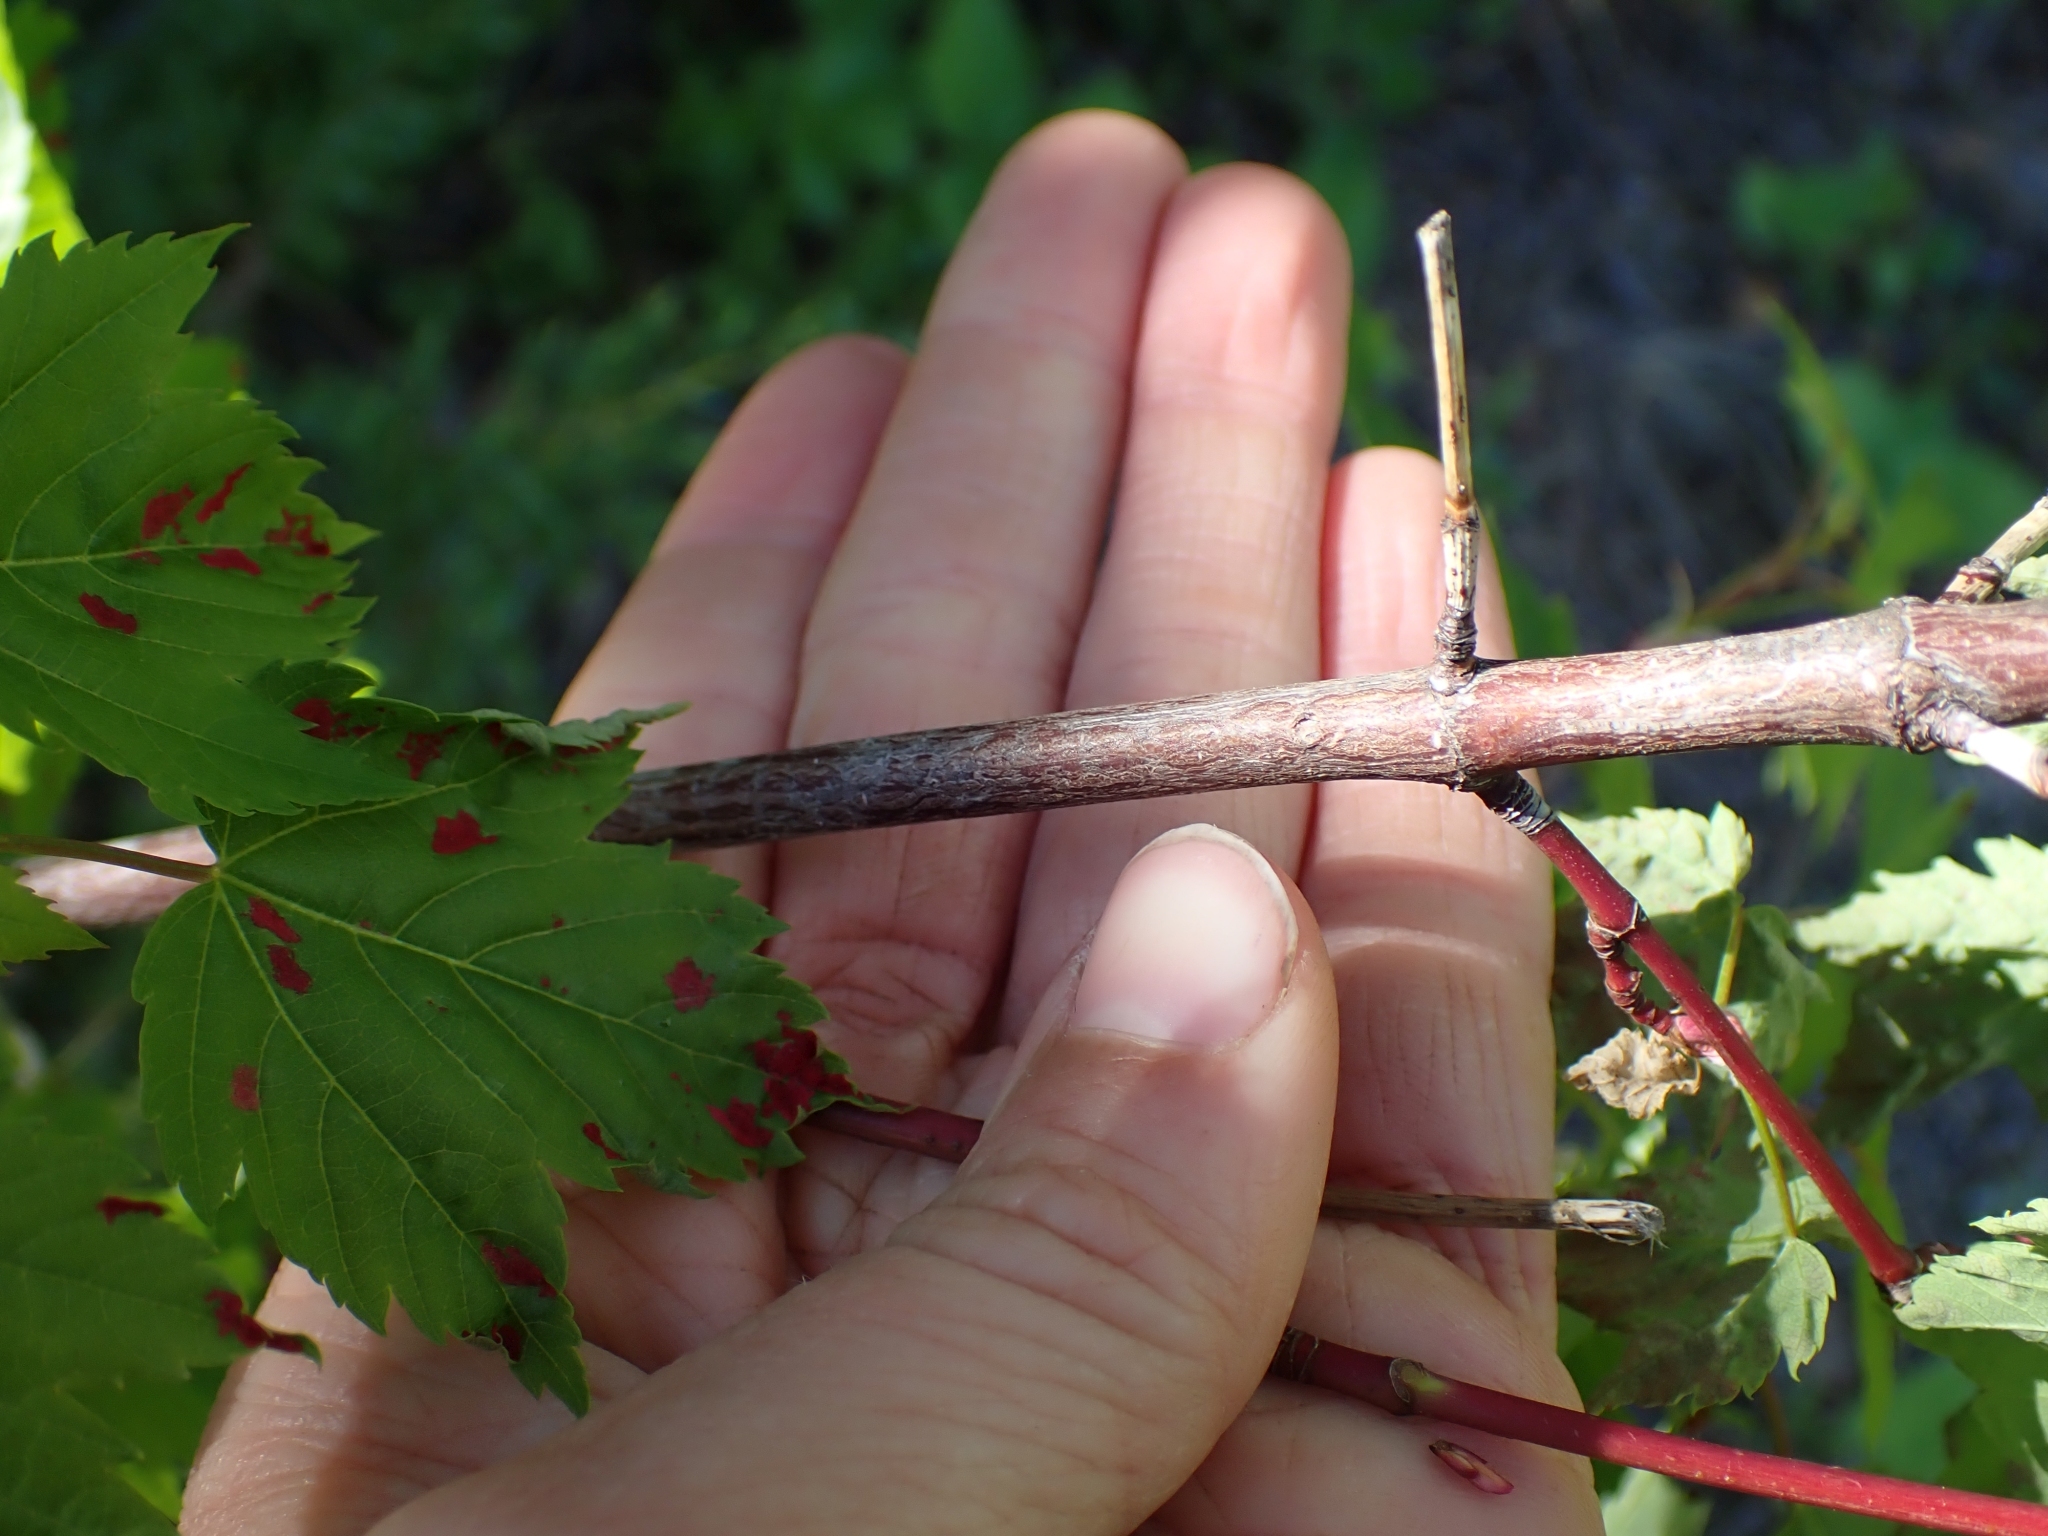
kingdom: Plantae
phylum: Tracheophyta
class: Magnoliopsida
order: Sapindales
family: Sapindaceae
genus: Acer
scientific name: Acer glabrum
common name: Rocky mountain maple
